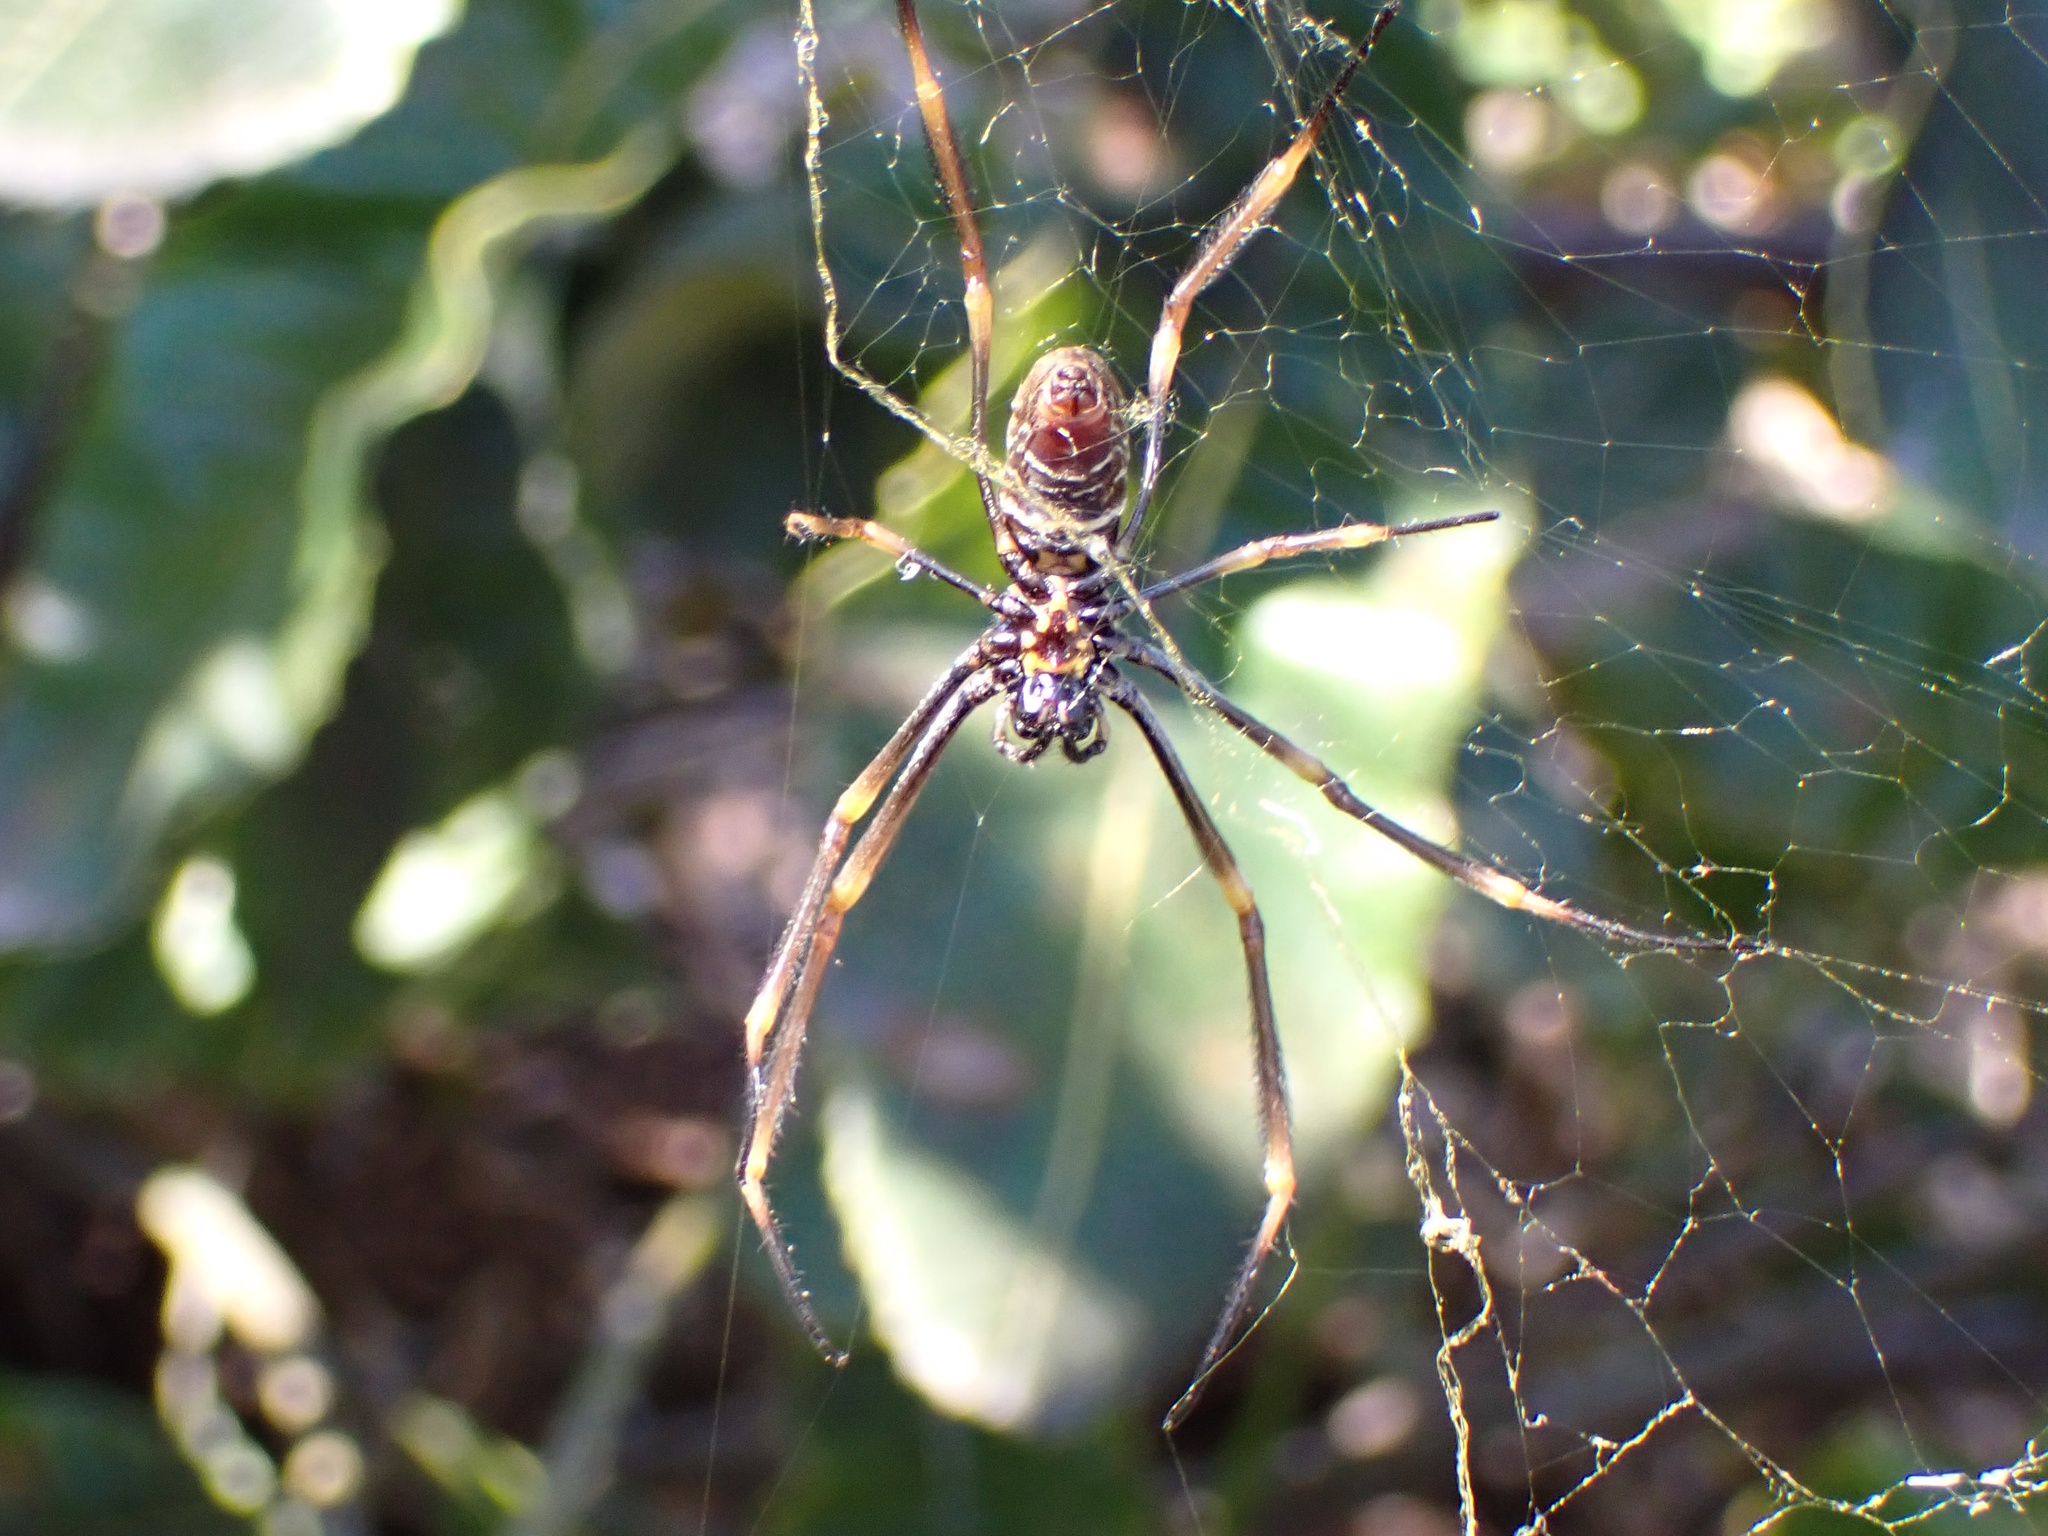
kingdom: Animalia
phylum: Arthropoda
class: Arachnida
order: Araneae
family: Araneidae
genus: Trichonephila
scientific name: Trichonephila plumipes
